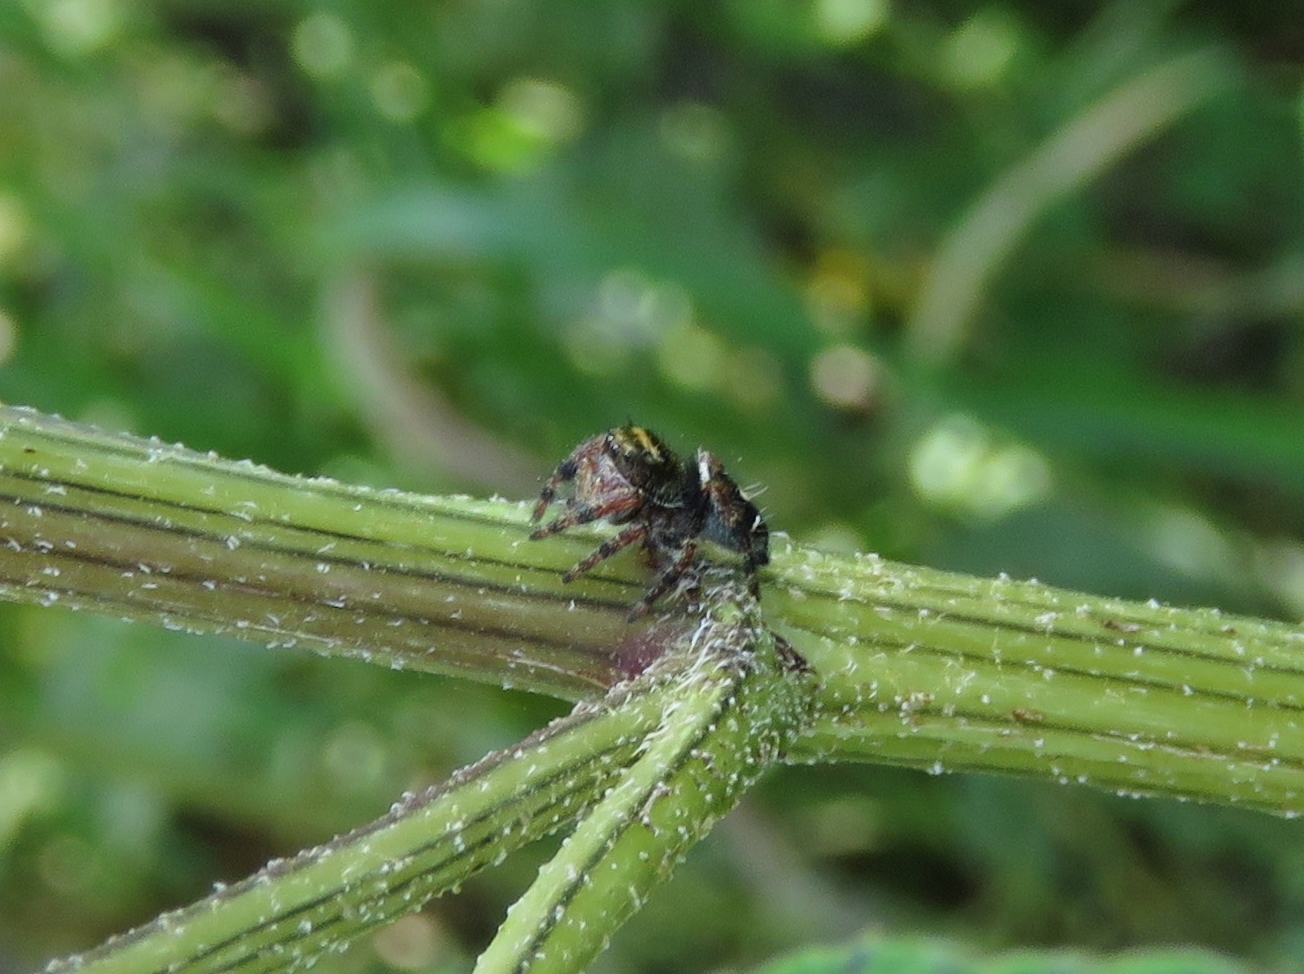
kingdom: Animalia
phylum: Arthropoda
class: Arachnida
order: Araneae
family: Salticidae
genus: Phidippus
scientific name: Phidippus audax
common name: Bold jumper
